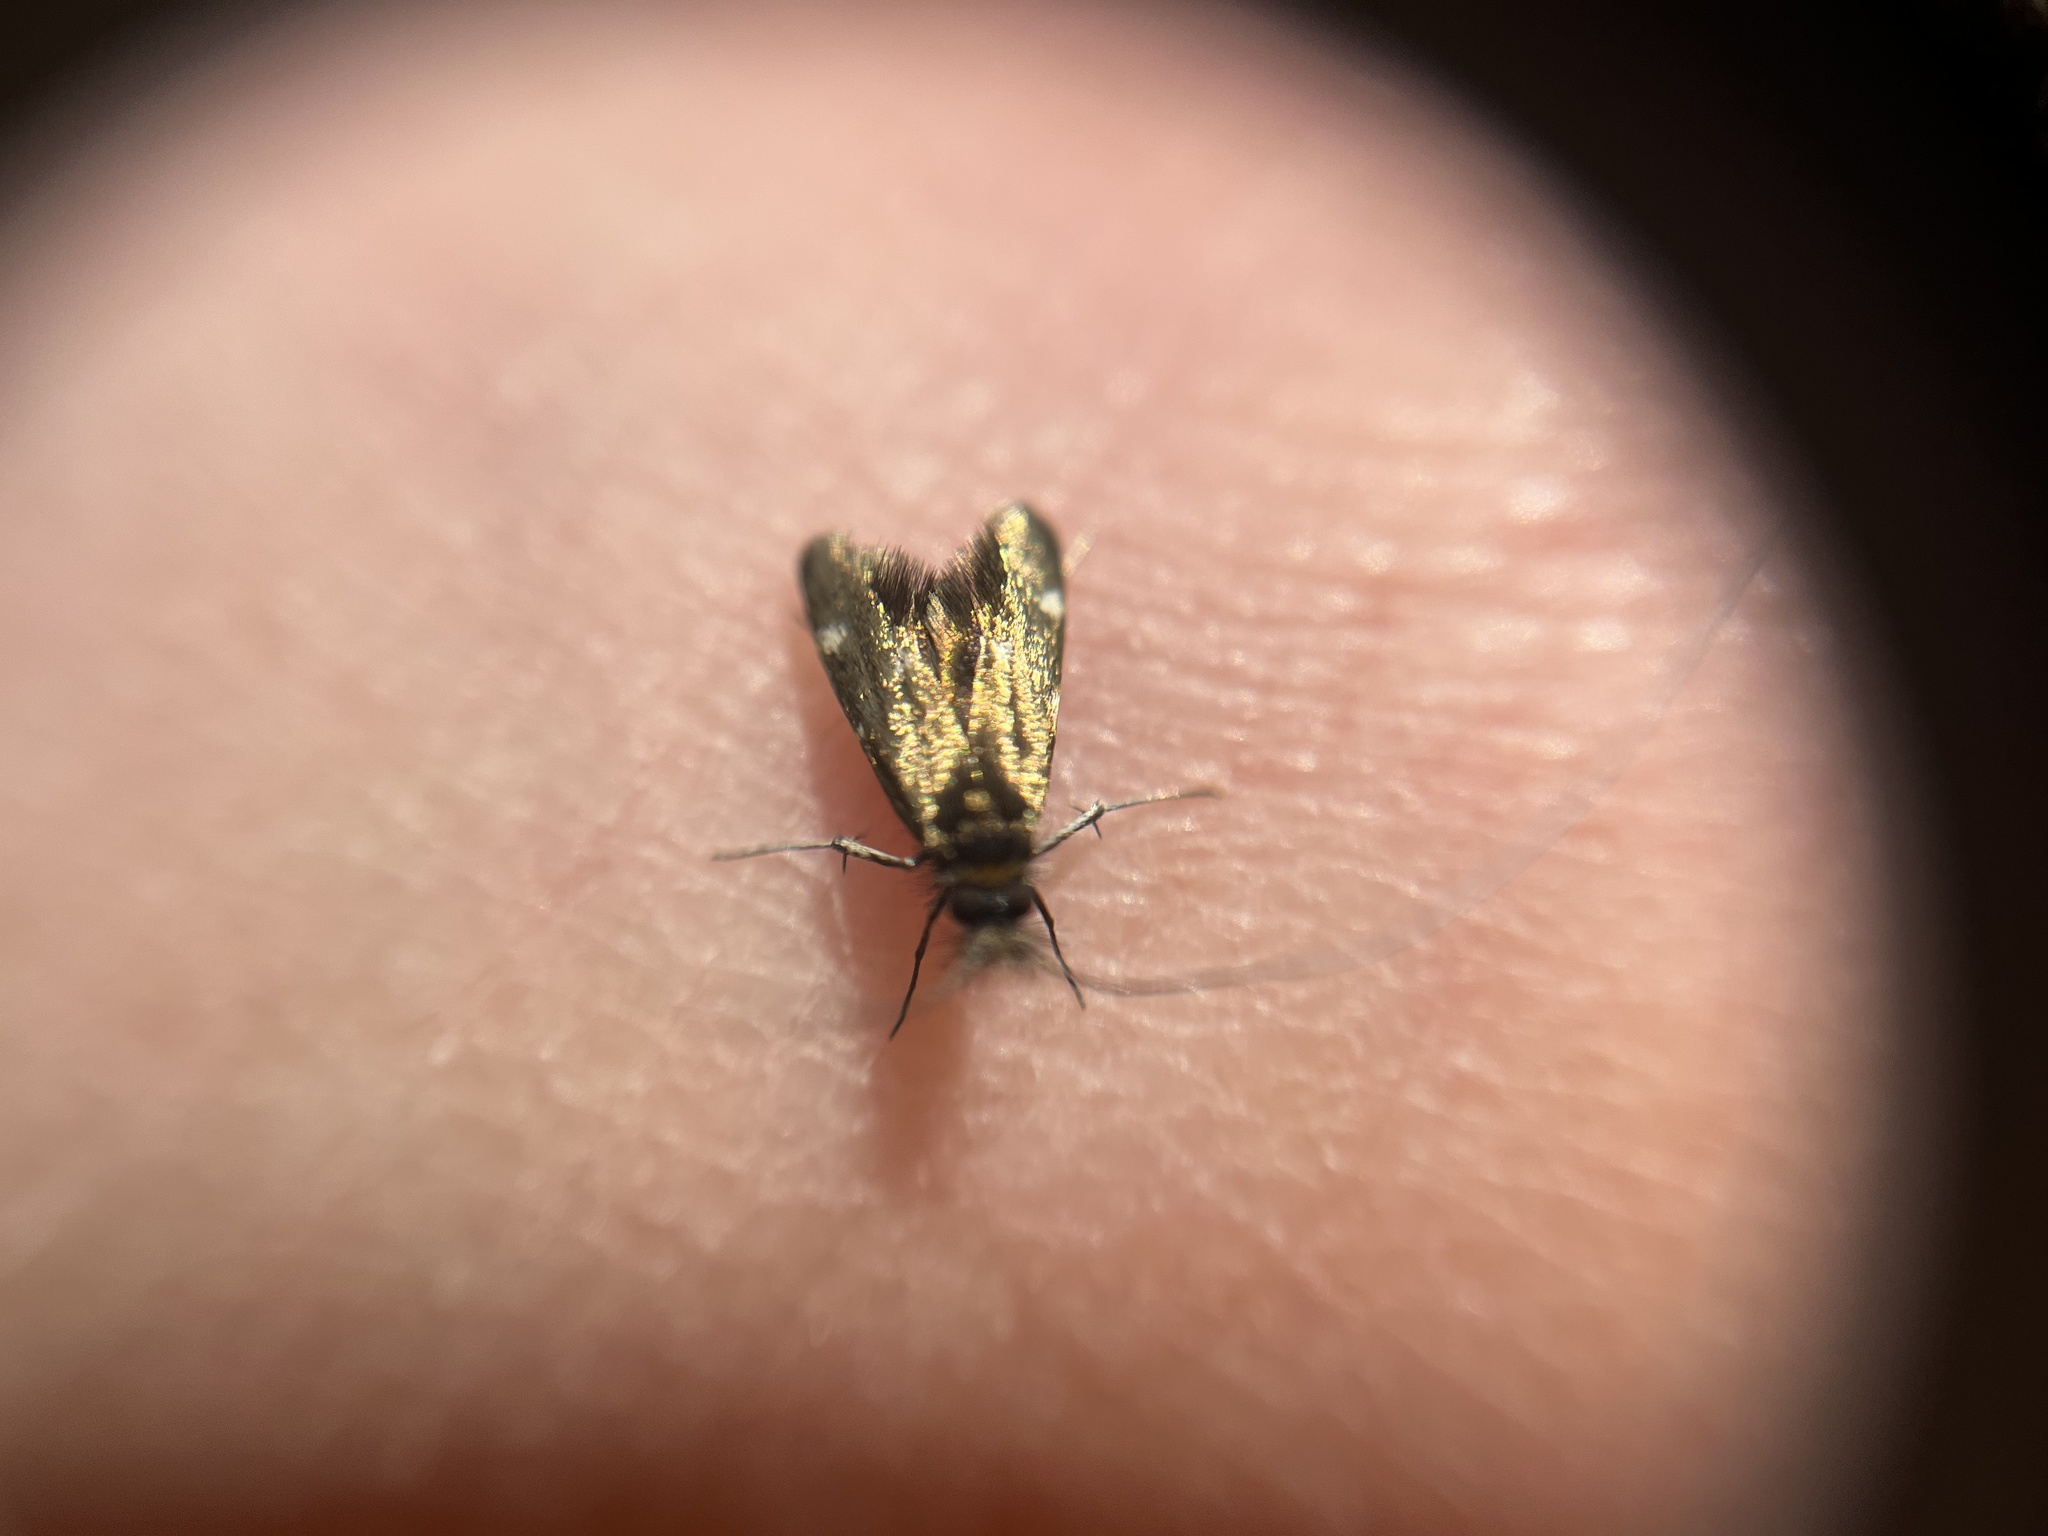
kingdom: Animalia
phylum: Arthropoda
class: Insecta
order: Lepidoptera
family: Adelidae
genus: Adela
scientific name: Adela flammeusella
